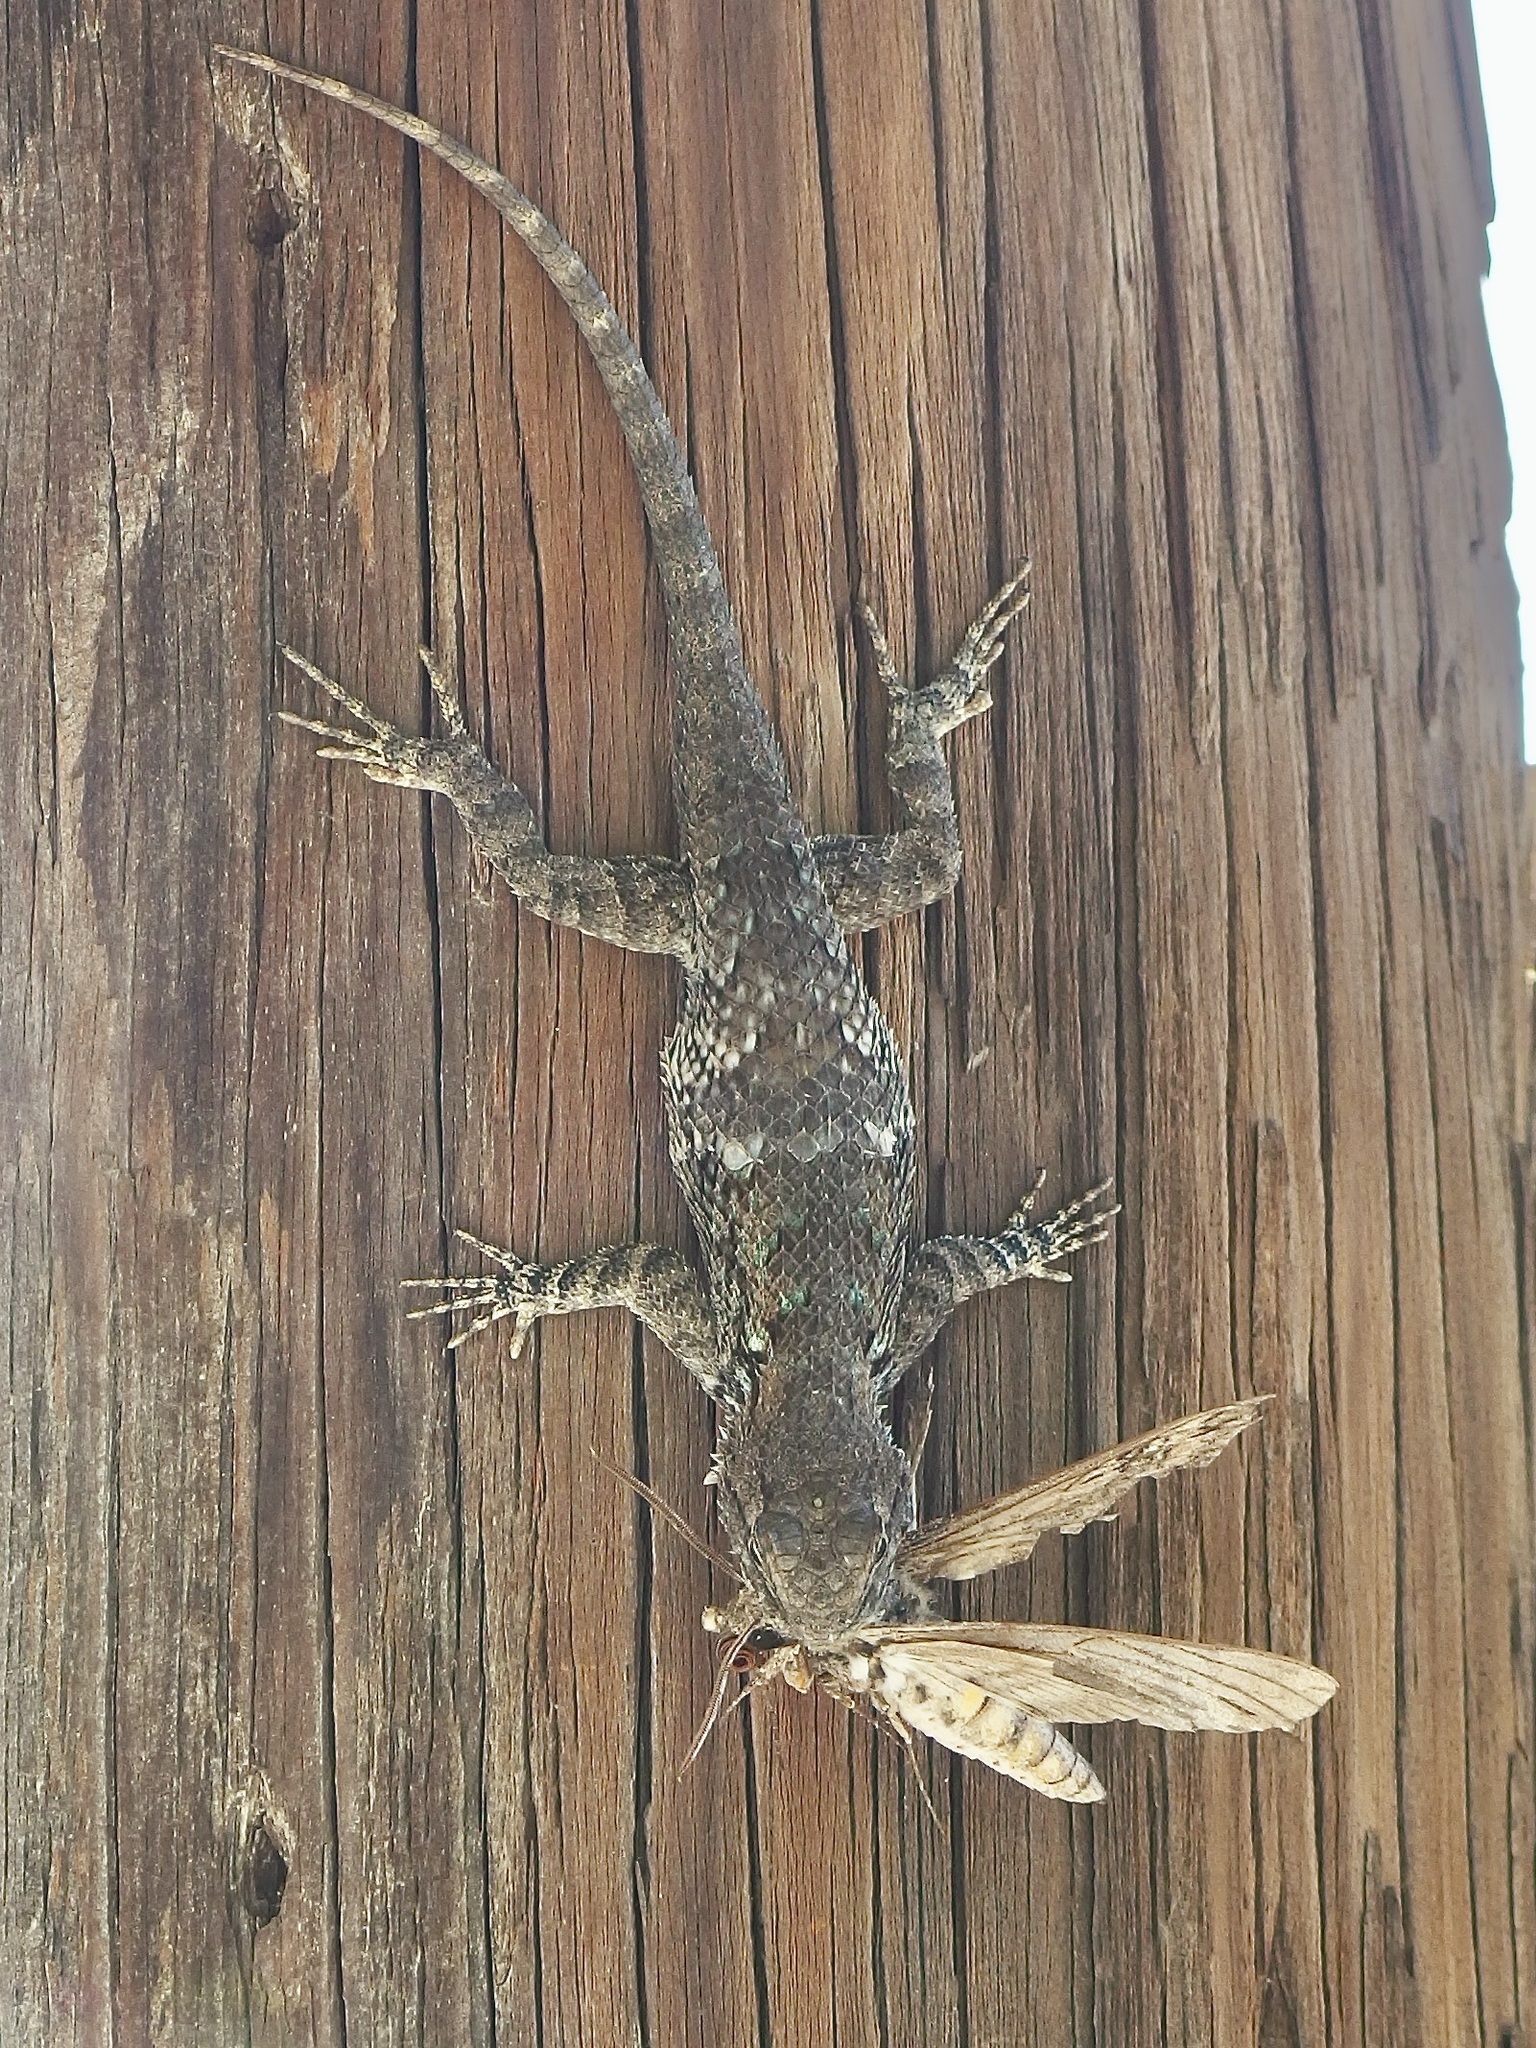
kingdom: Animalia
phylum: Chordata
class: Squamata
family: Phrynosomatidae
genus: Sceloporus
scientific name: Sceloporus clarkii
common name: Clark's spiny lizard
